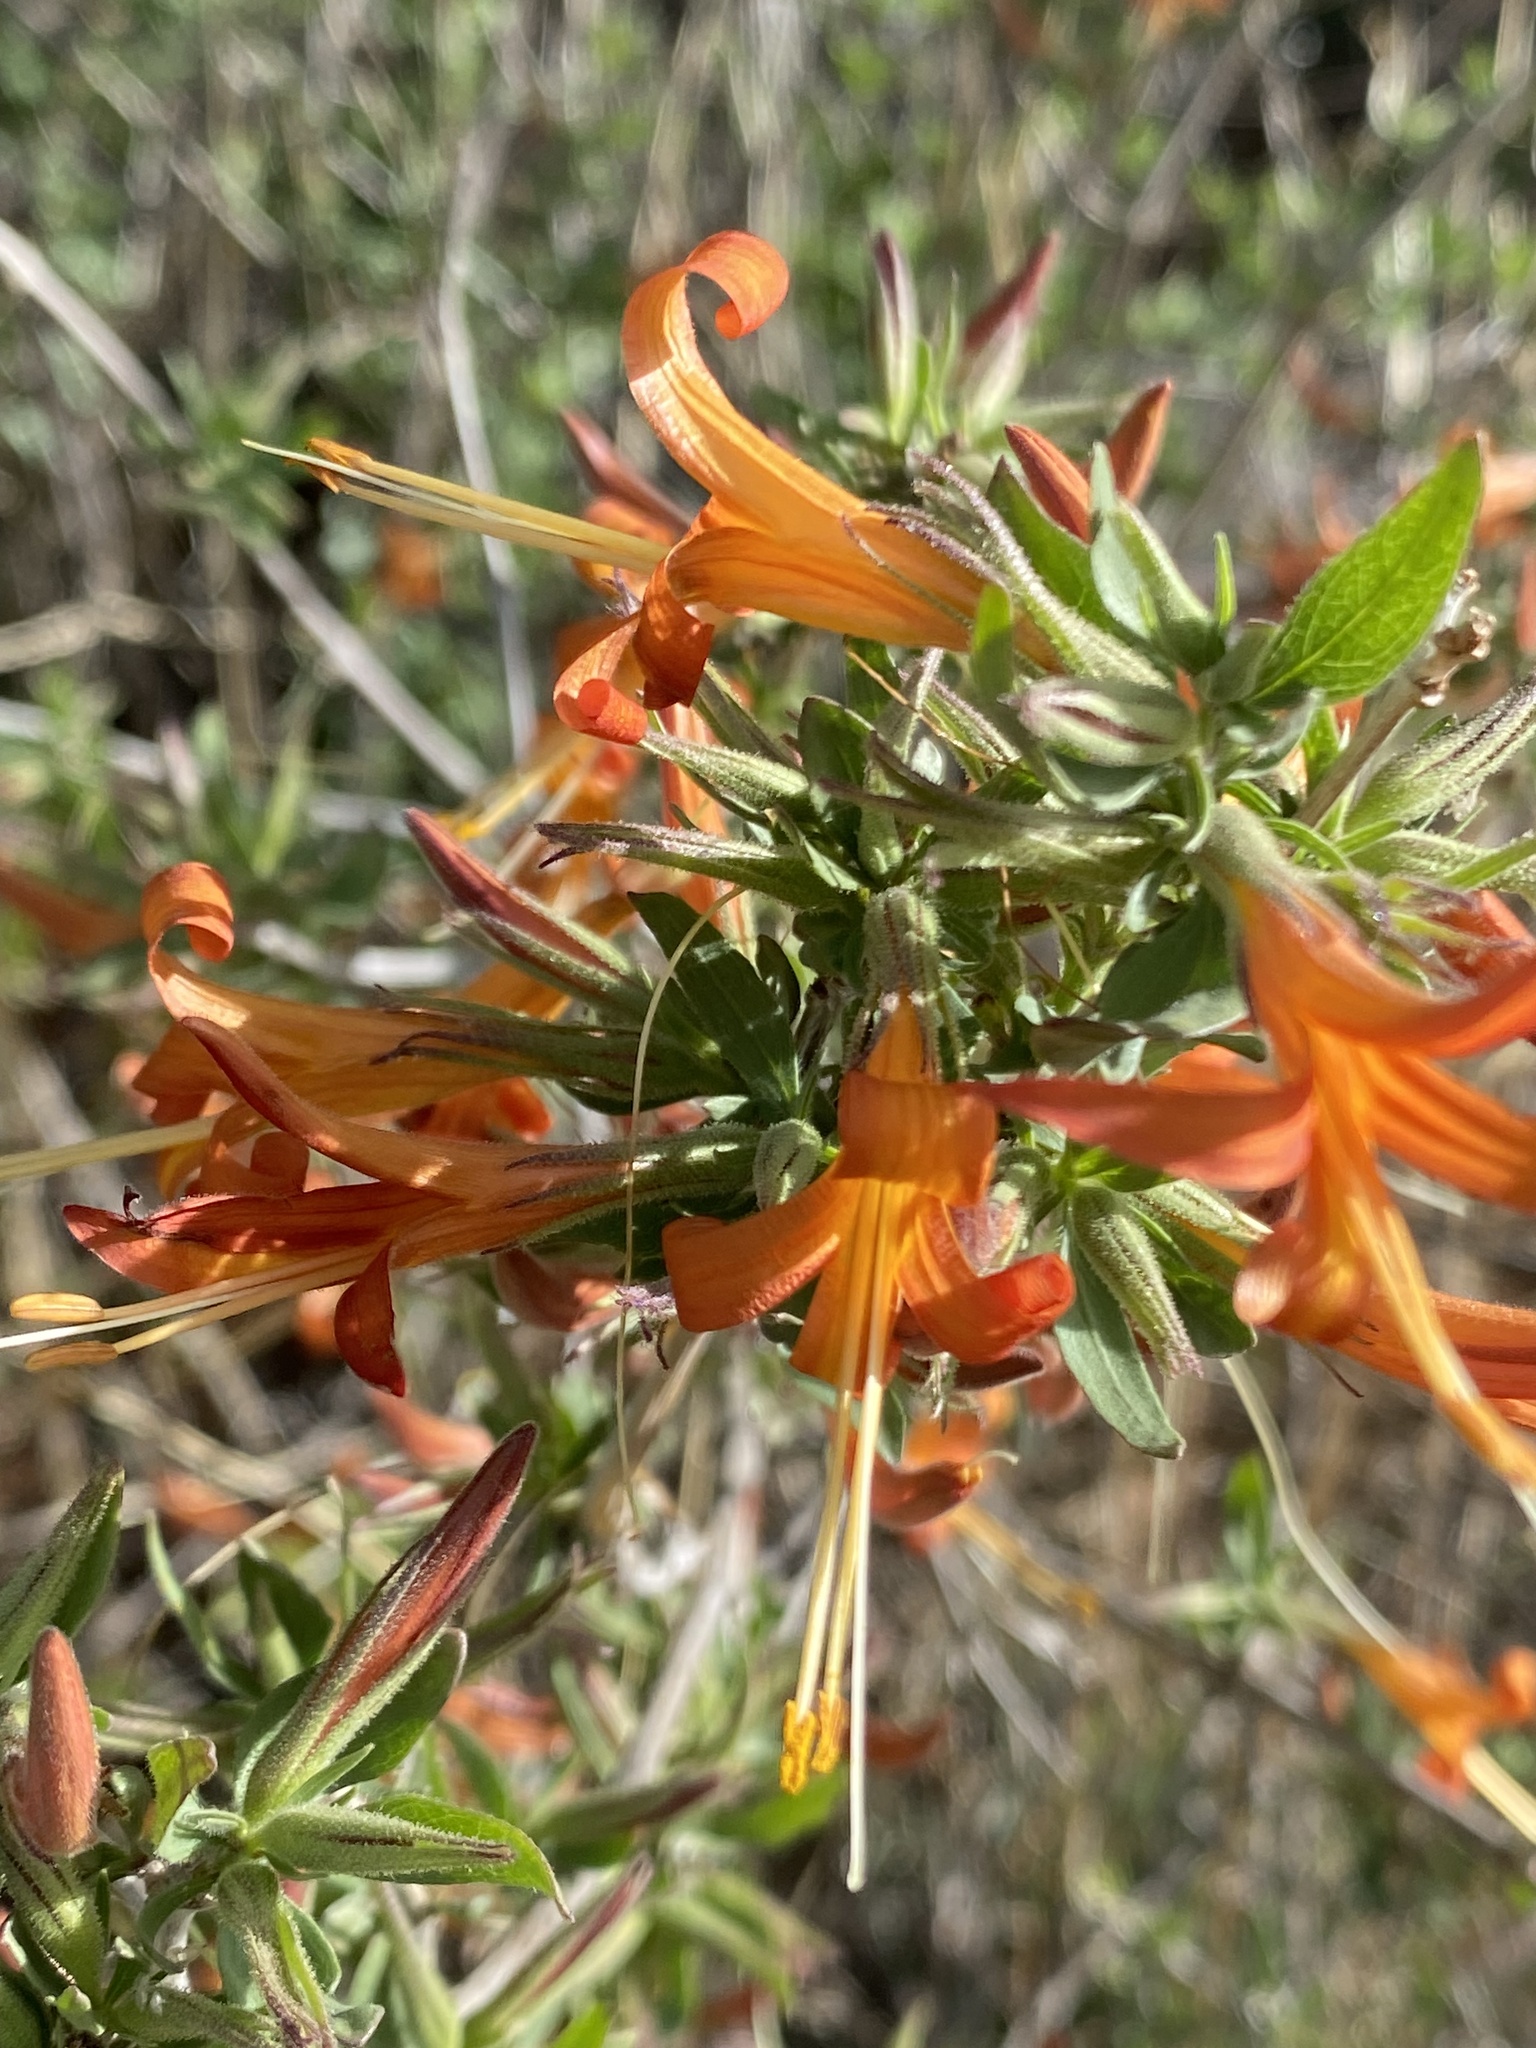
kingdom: Plantae
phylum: Tracheophyta
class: Magnoliopsida
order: Lamiales
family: Acanthaceae
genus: Anisacanthus
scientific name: Anisacanthus thurberi
